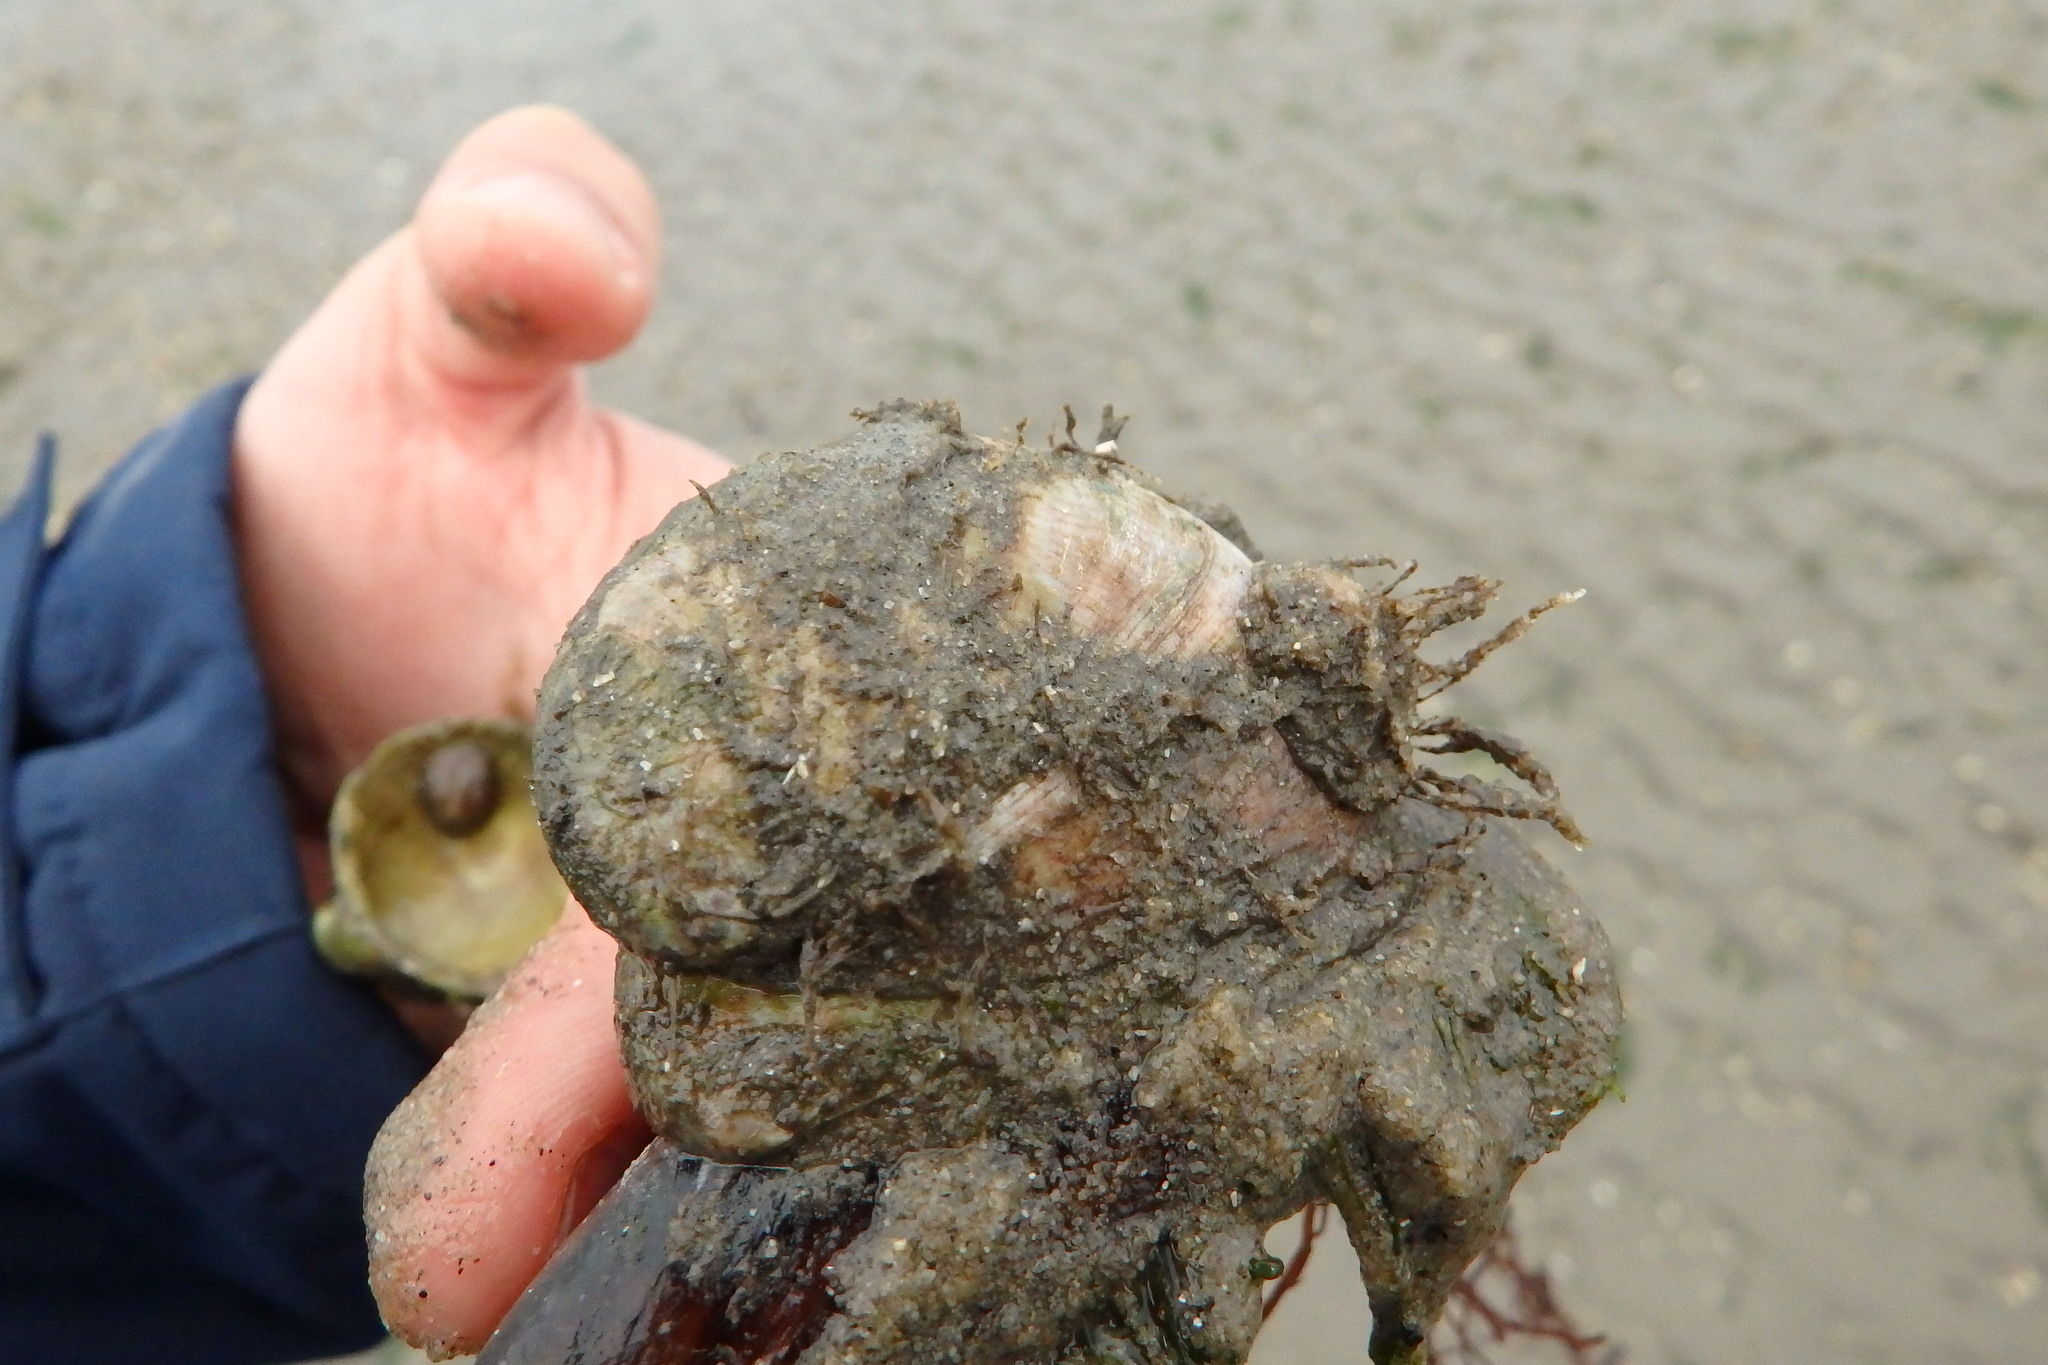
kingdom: Animalia
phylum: Mollusca
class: Gastropoda
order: Littorinimorpha
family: Calyptraeidae
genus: Crepidula
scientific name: Crepidula fornicata
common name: Slipper limpet
